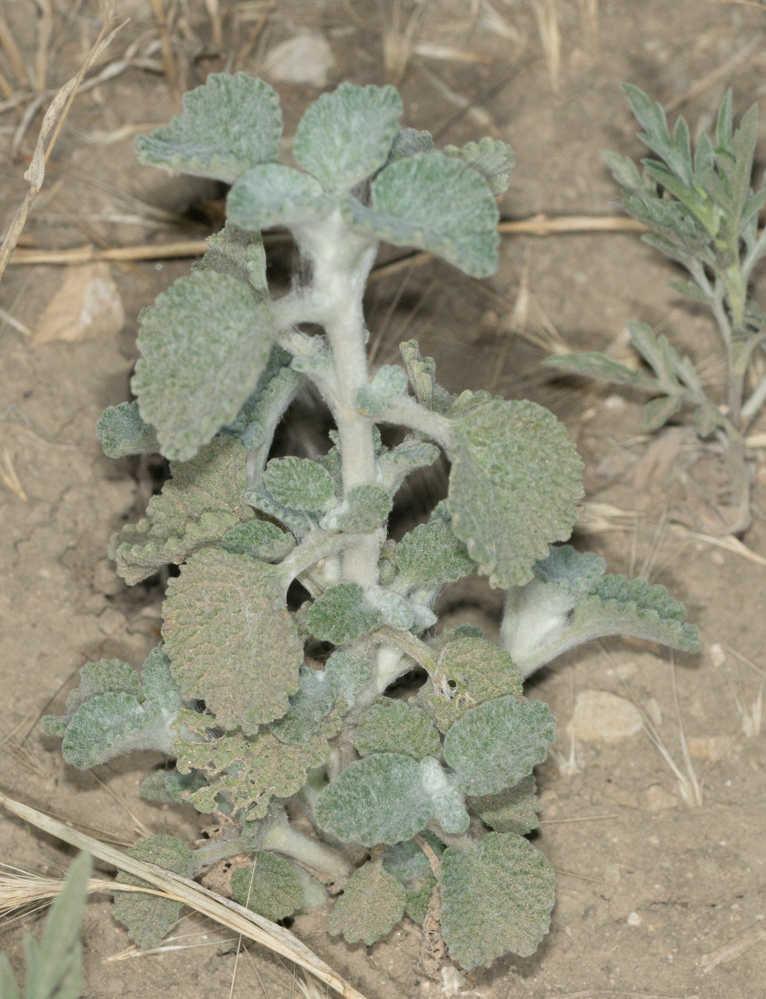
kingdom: Plantae
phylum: Tracheophyta
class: Magnoliopsida
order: Lamiales
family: Lamiaceae
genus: Marrubium
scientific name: Marrubium vulgare
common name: Horehound
